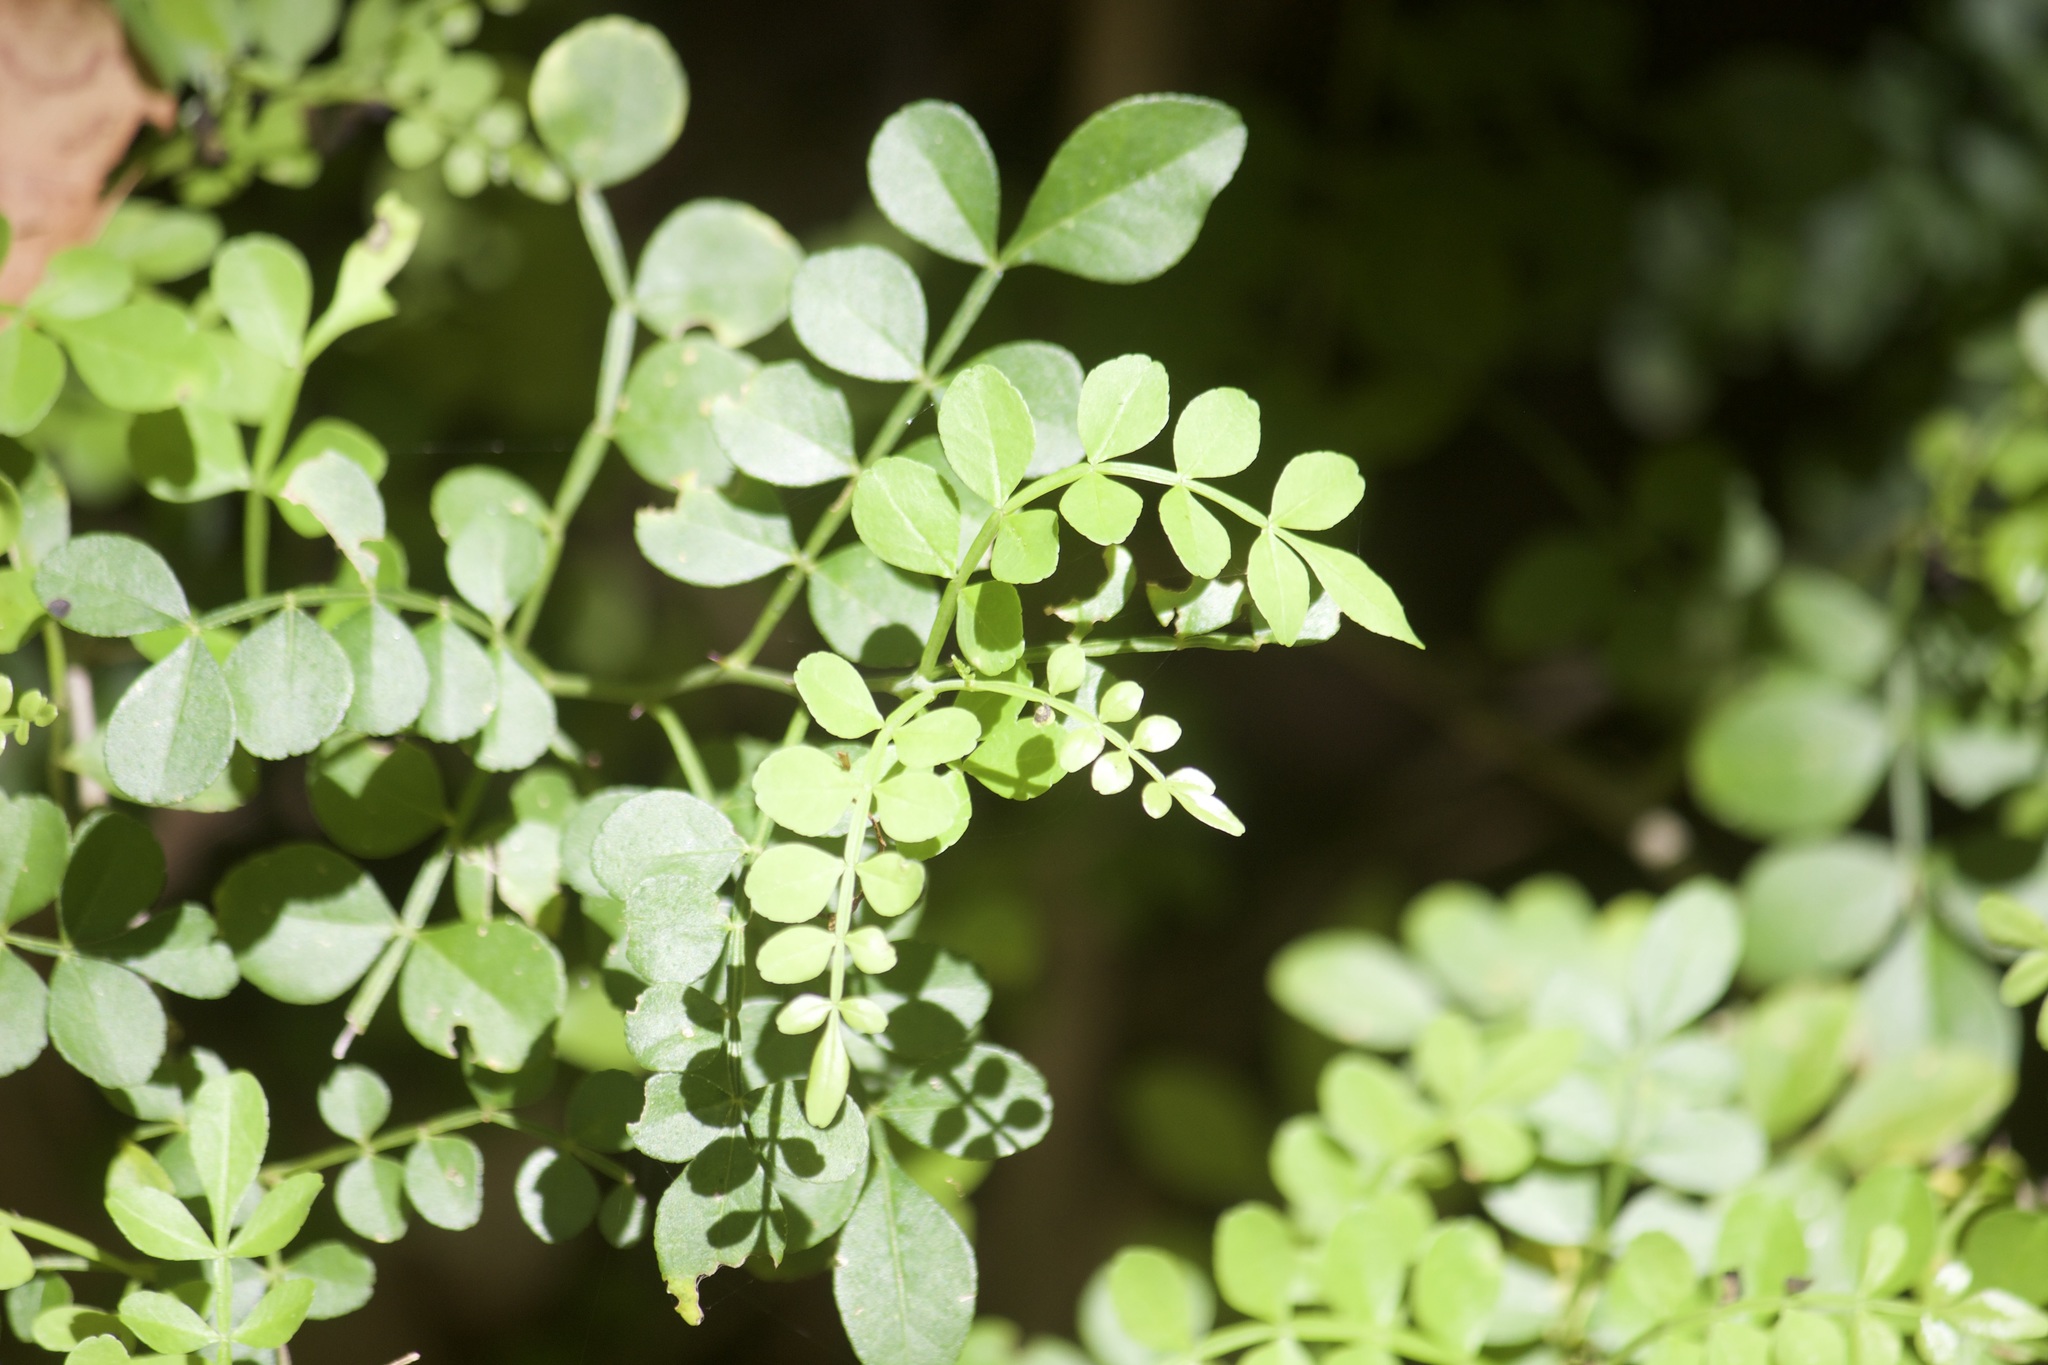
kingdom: Plantae
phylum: Tracheophyta
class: Magnoliopsida
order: Sapindales
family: Rutaceae
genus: Zanthoxylum
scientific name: Zanthoxylum fagara
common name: Lime prickly-ash
